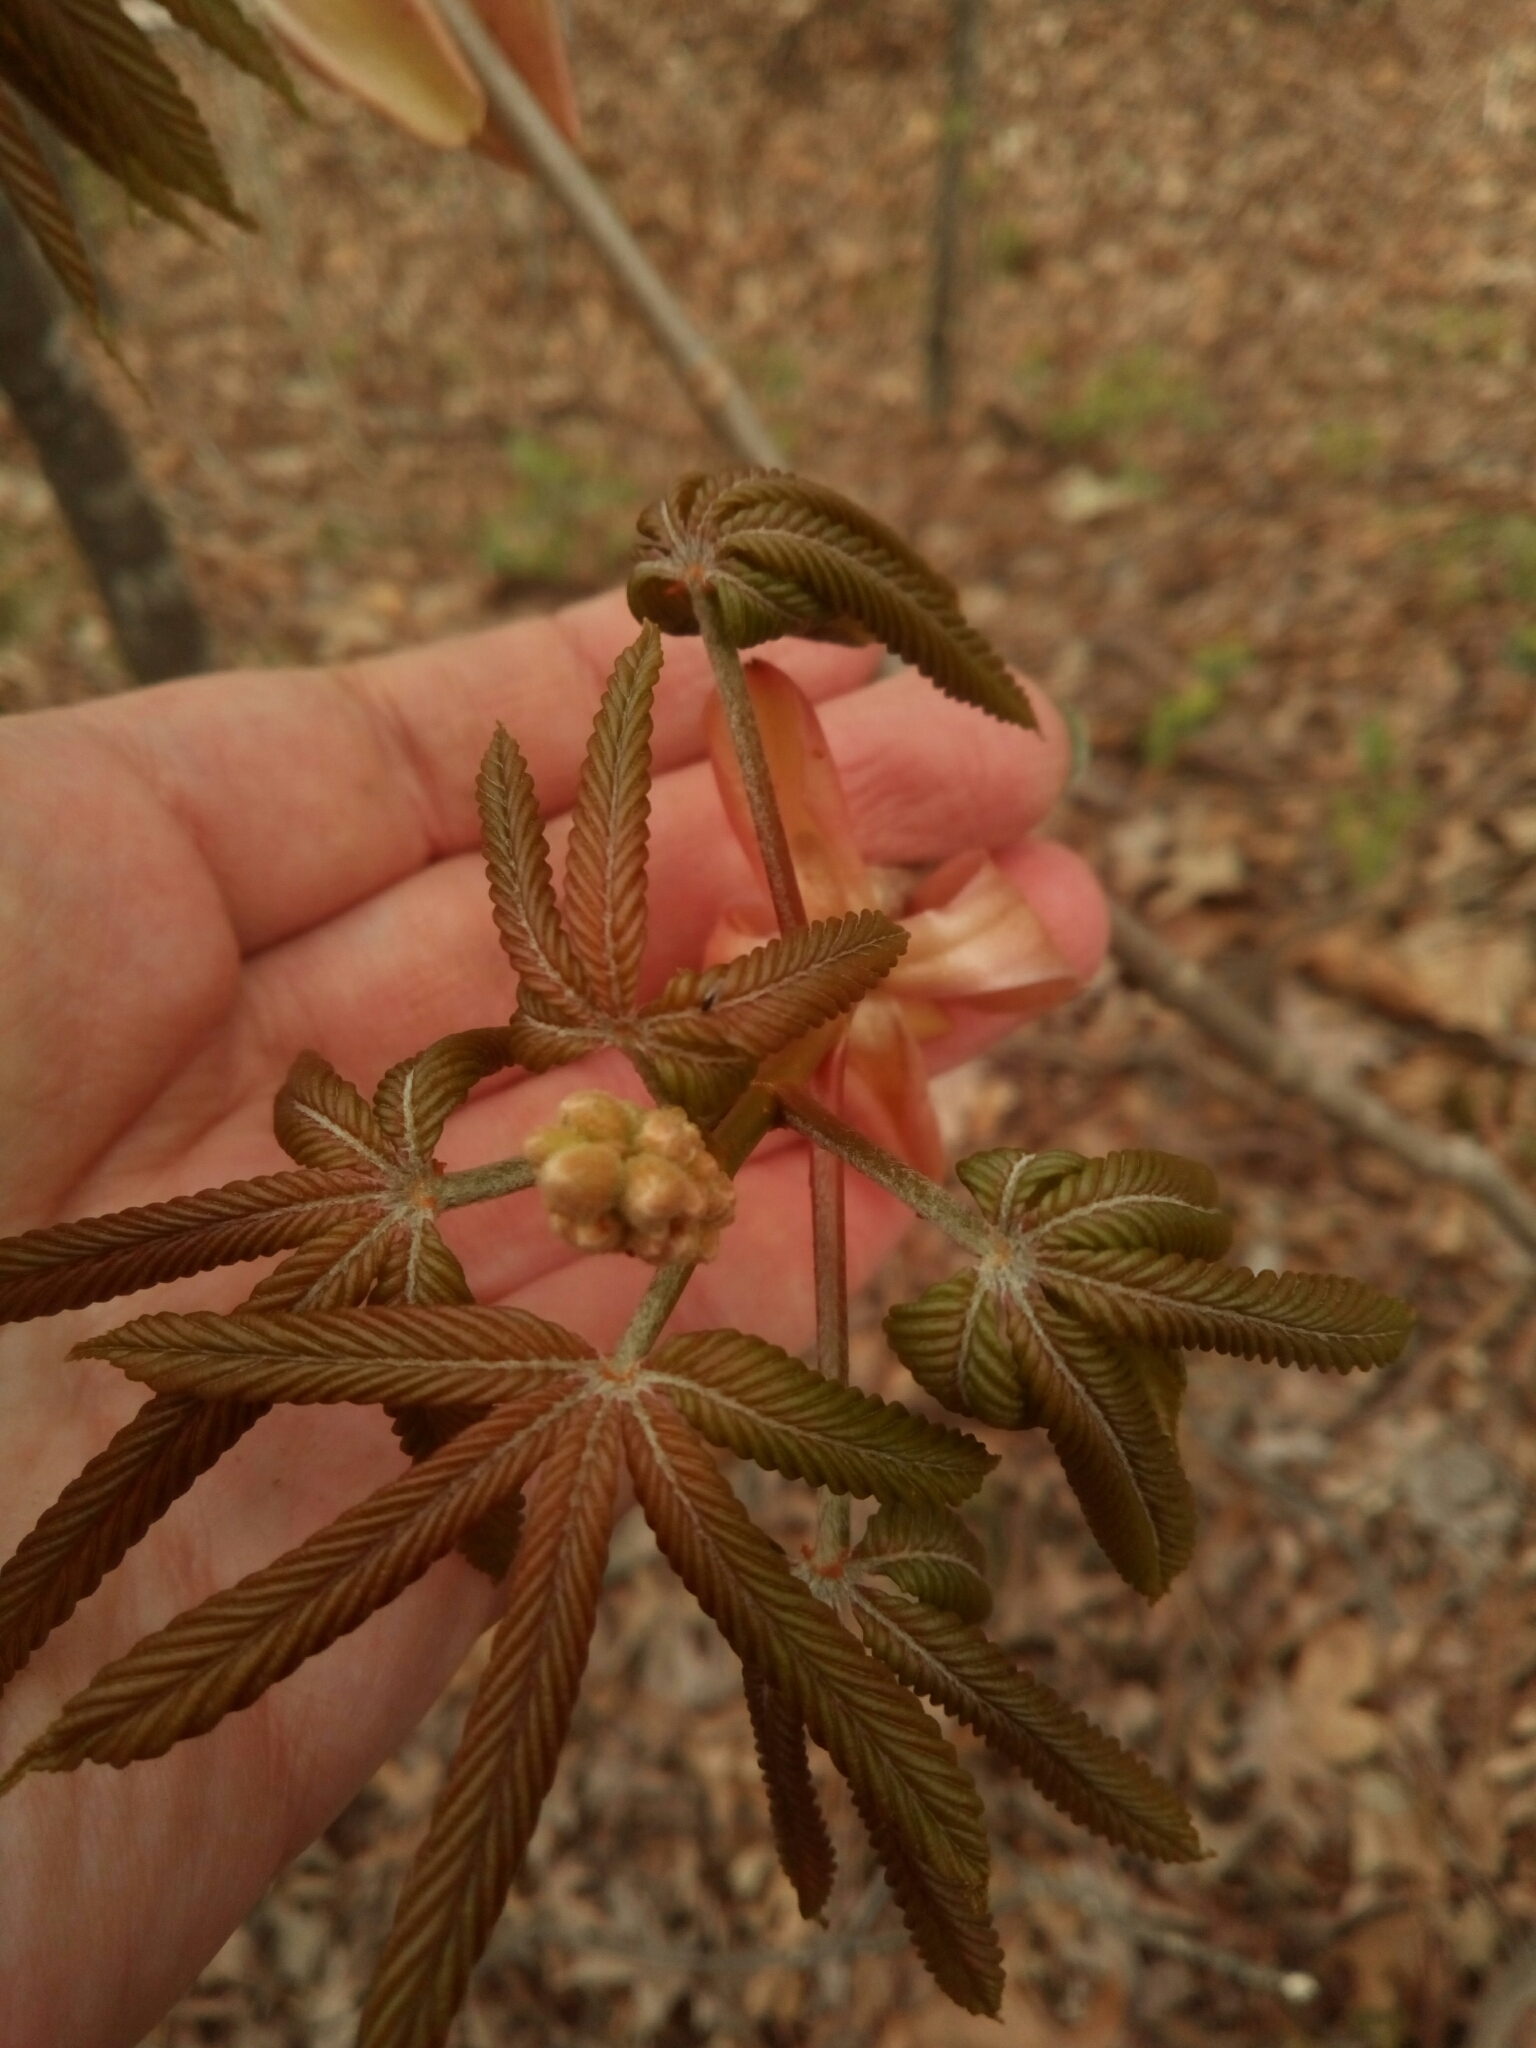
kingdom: Plantae
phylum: Tracheophyta
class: Magnoliopsida
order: Sapindales
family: Sapindaceae
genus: Aesculus
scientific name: Aesculus sylvatica
